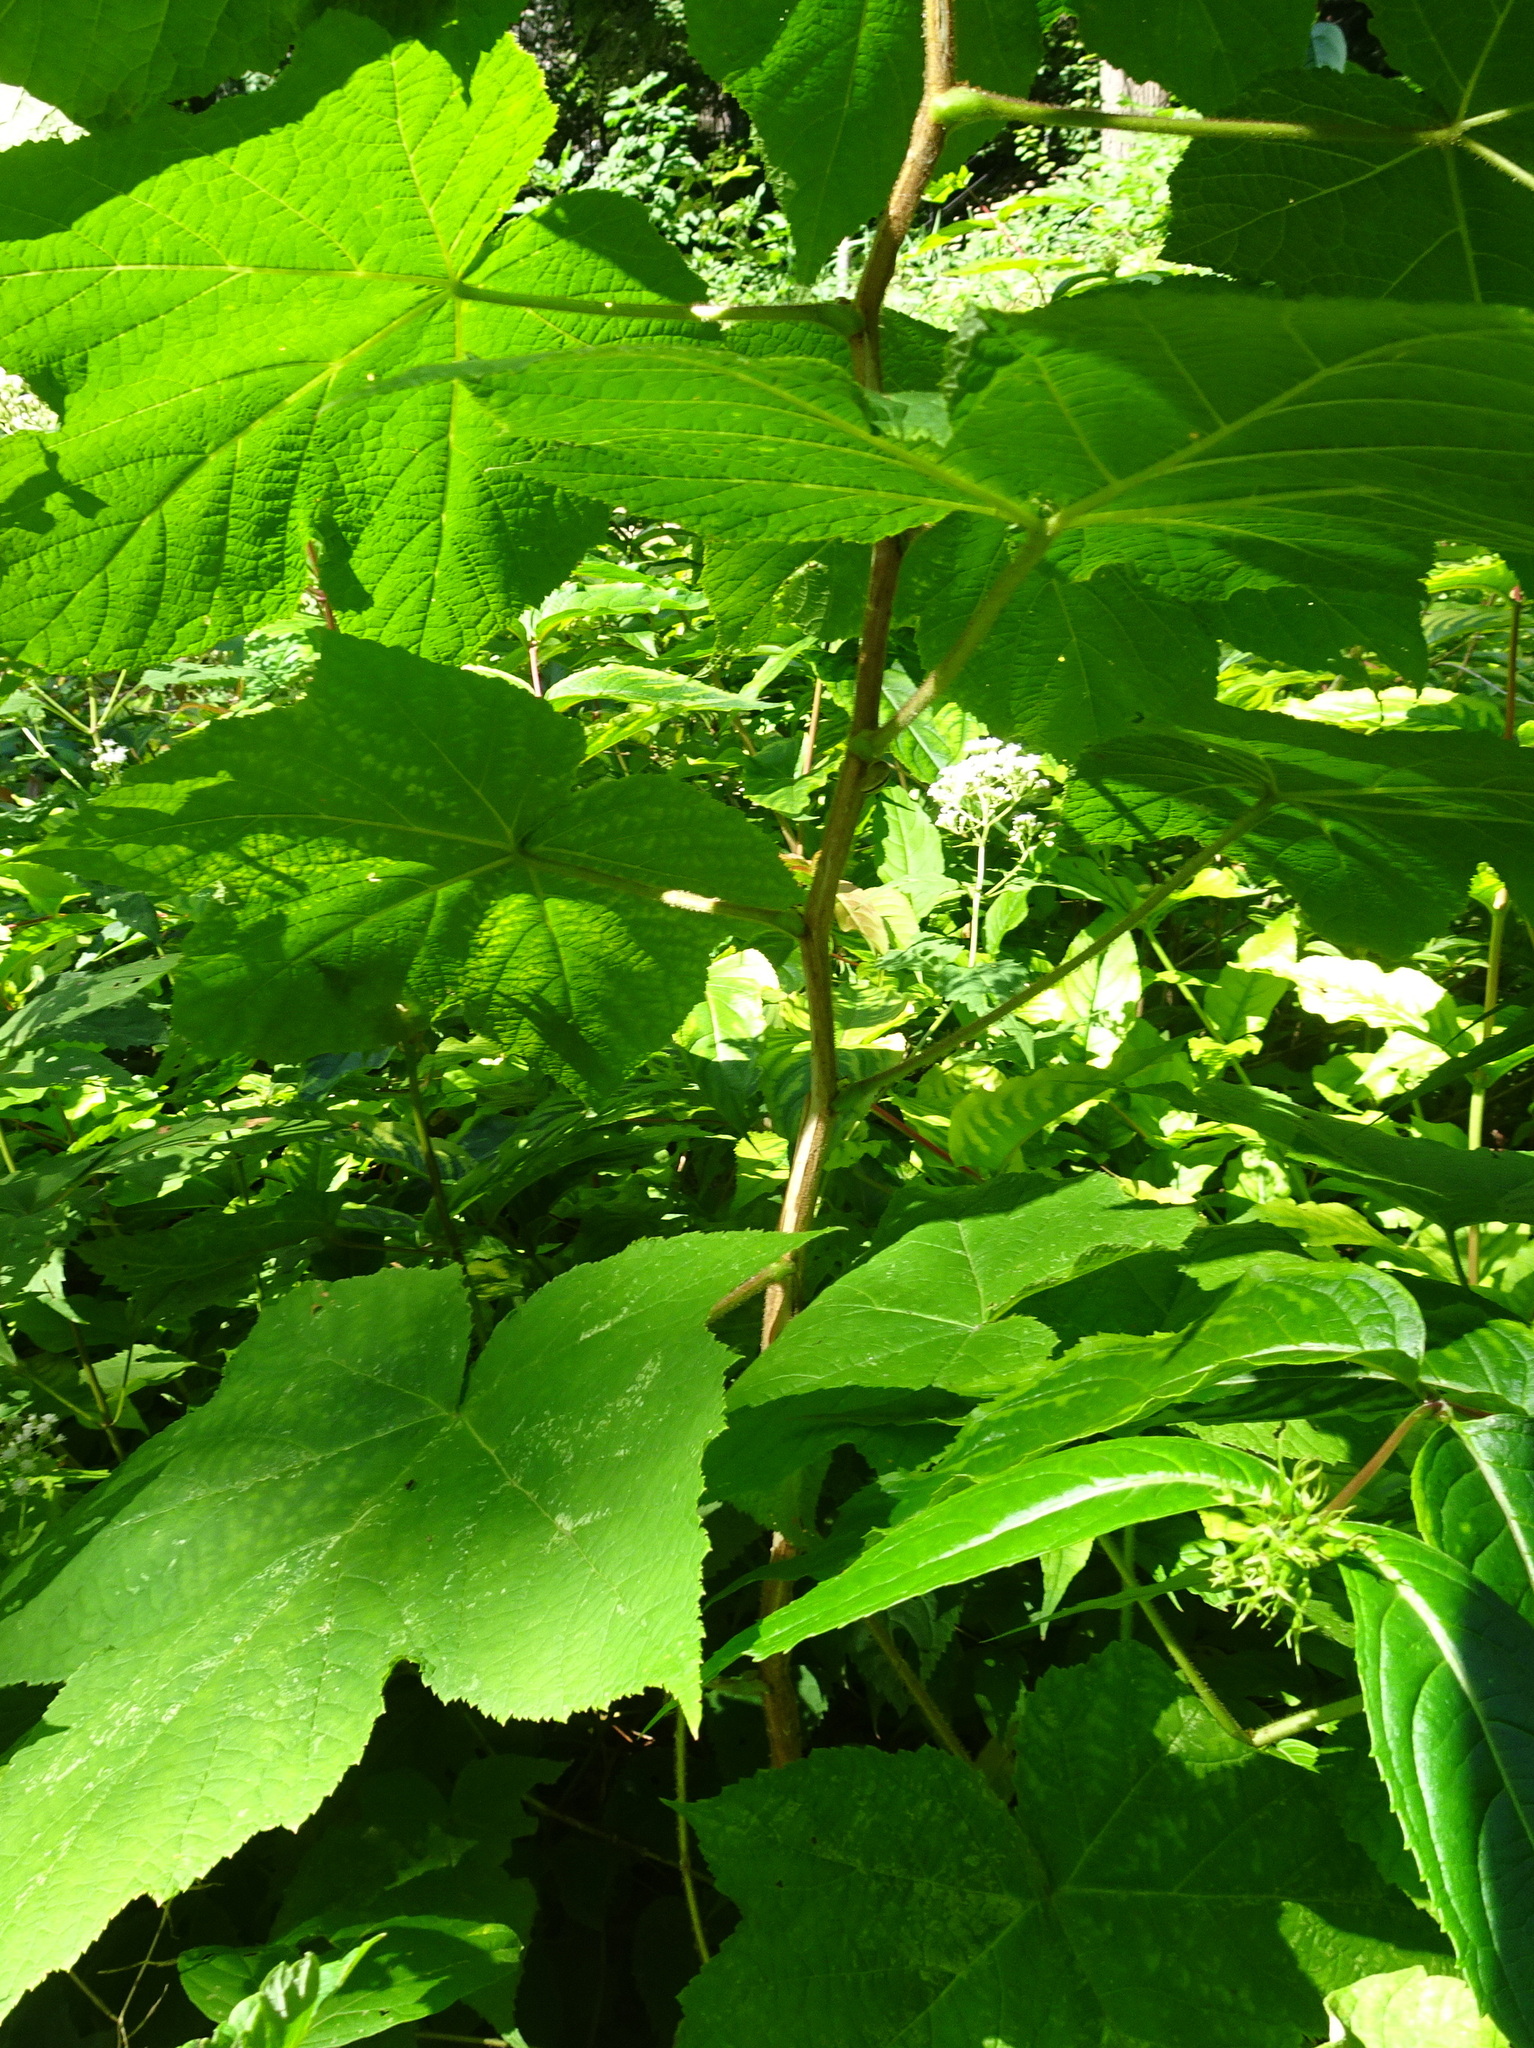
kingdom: Plantae
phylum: Tracheophyta
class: Magnoliopsida
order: Rosales
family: Rosaceae
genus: Rubus
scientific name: Rubus odoratus
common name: Purple-flowered raspberry
